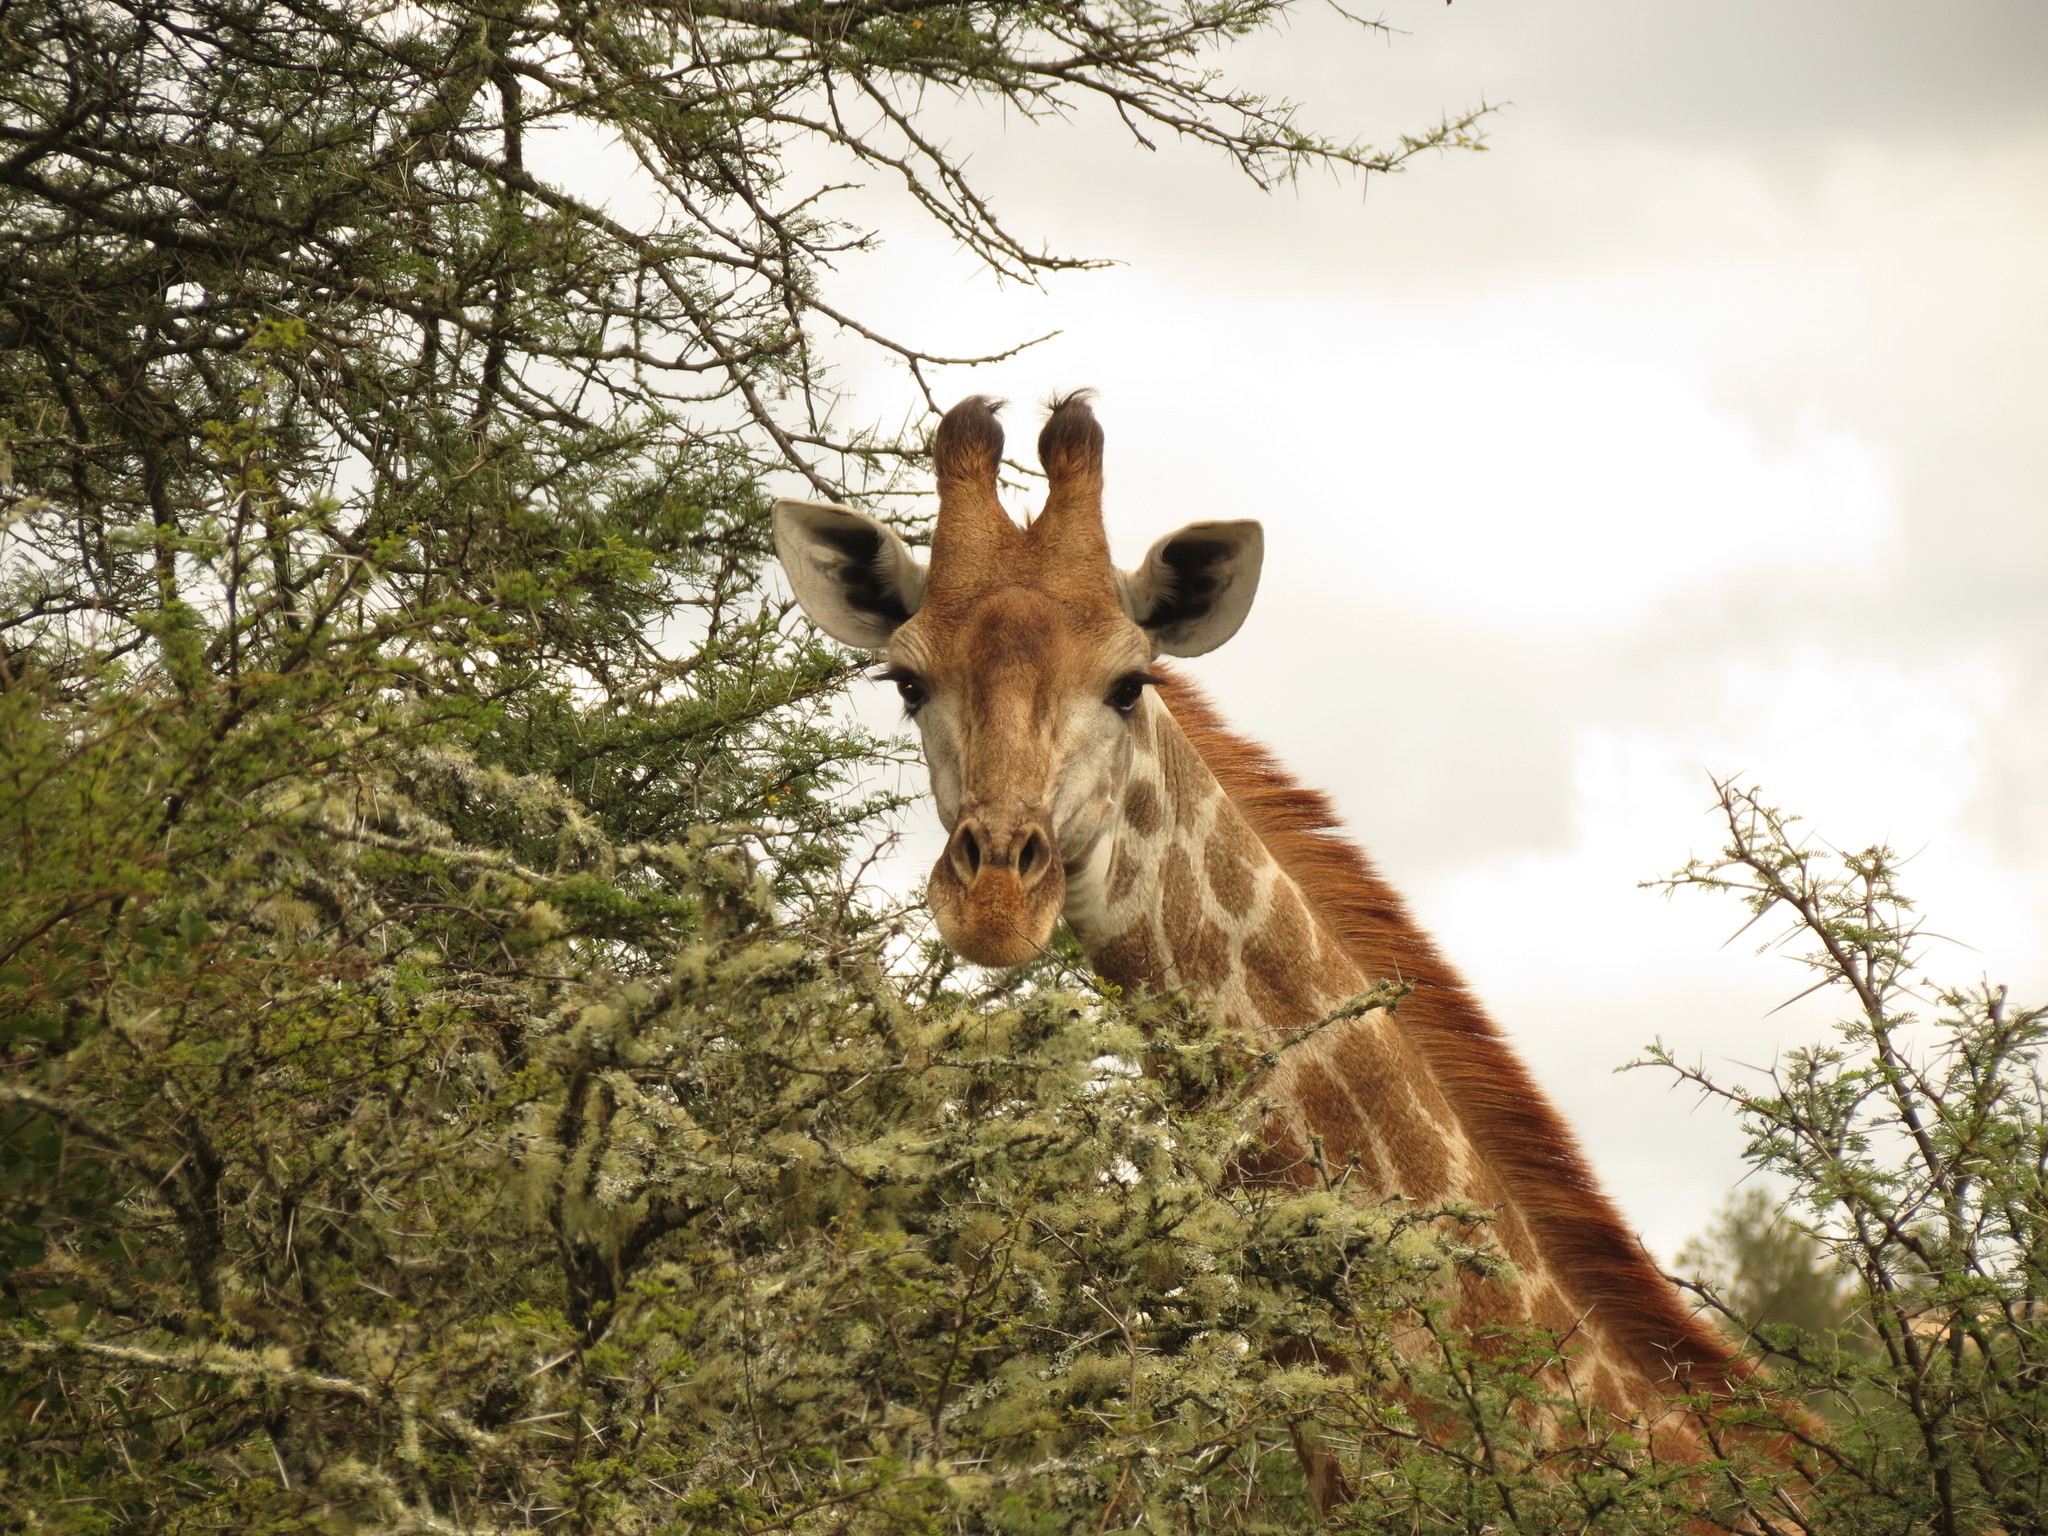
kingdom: Animalia
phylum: Chordata
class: Mammalia
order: Artiodactyla
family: Giraffidae
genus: Giraffa
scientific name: Giraffa giraffa
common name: Southern giraffe
